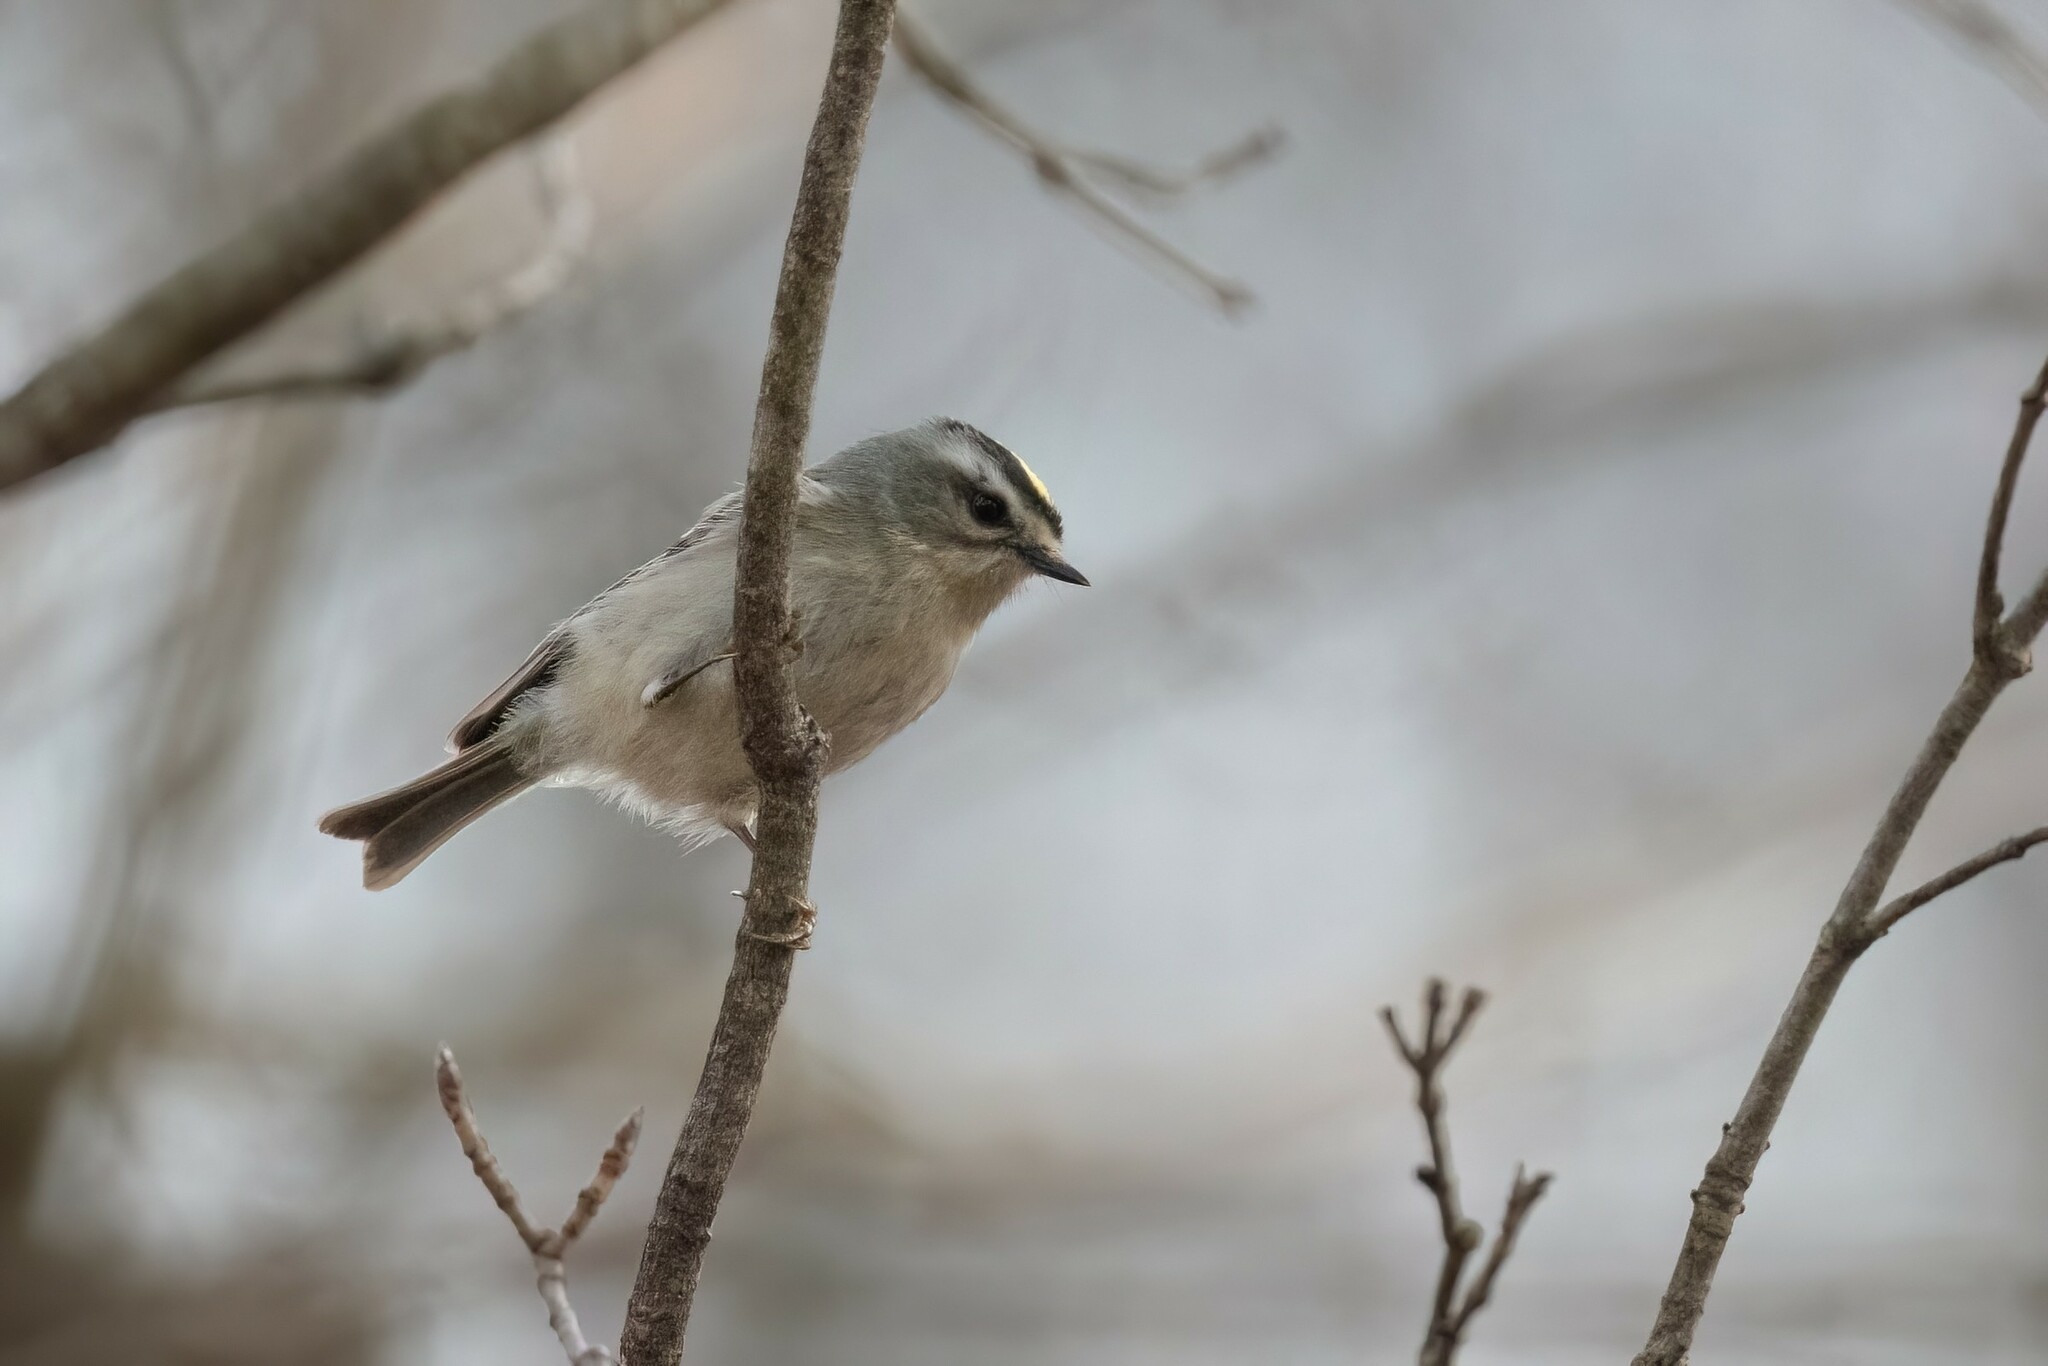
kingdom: Animalia
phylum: Chordata
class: Aves
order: Passeriformes
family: Regulidae
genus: Regulus
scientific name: Regulus satrapa
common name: Golden-crowned kinglet
